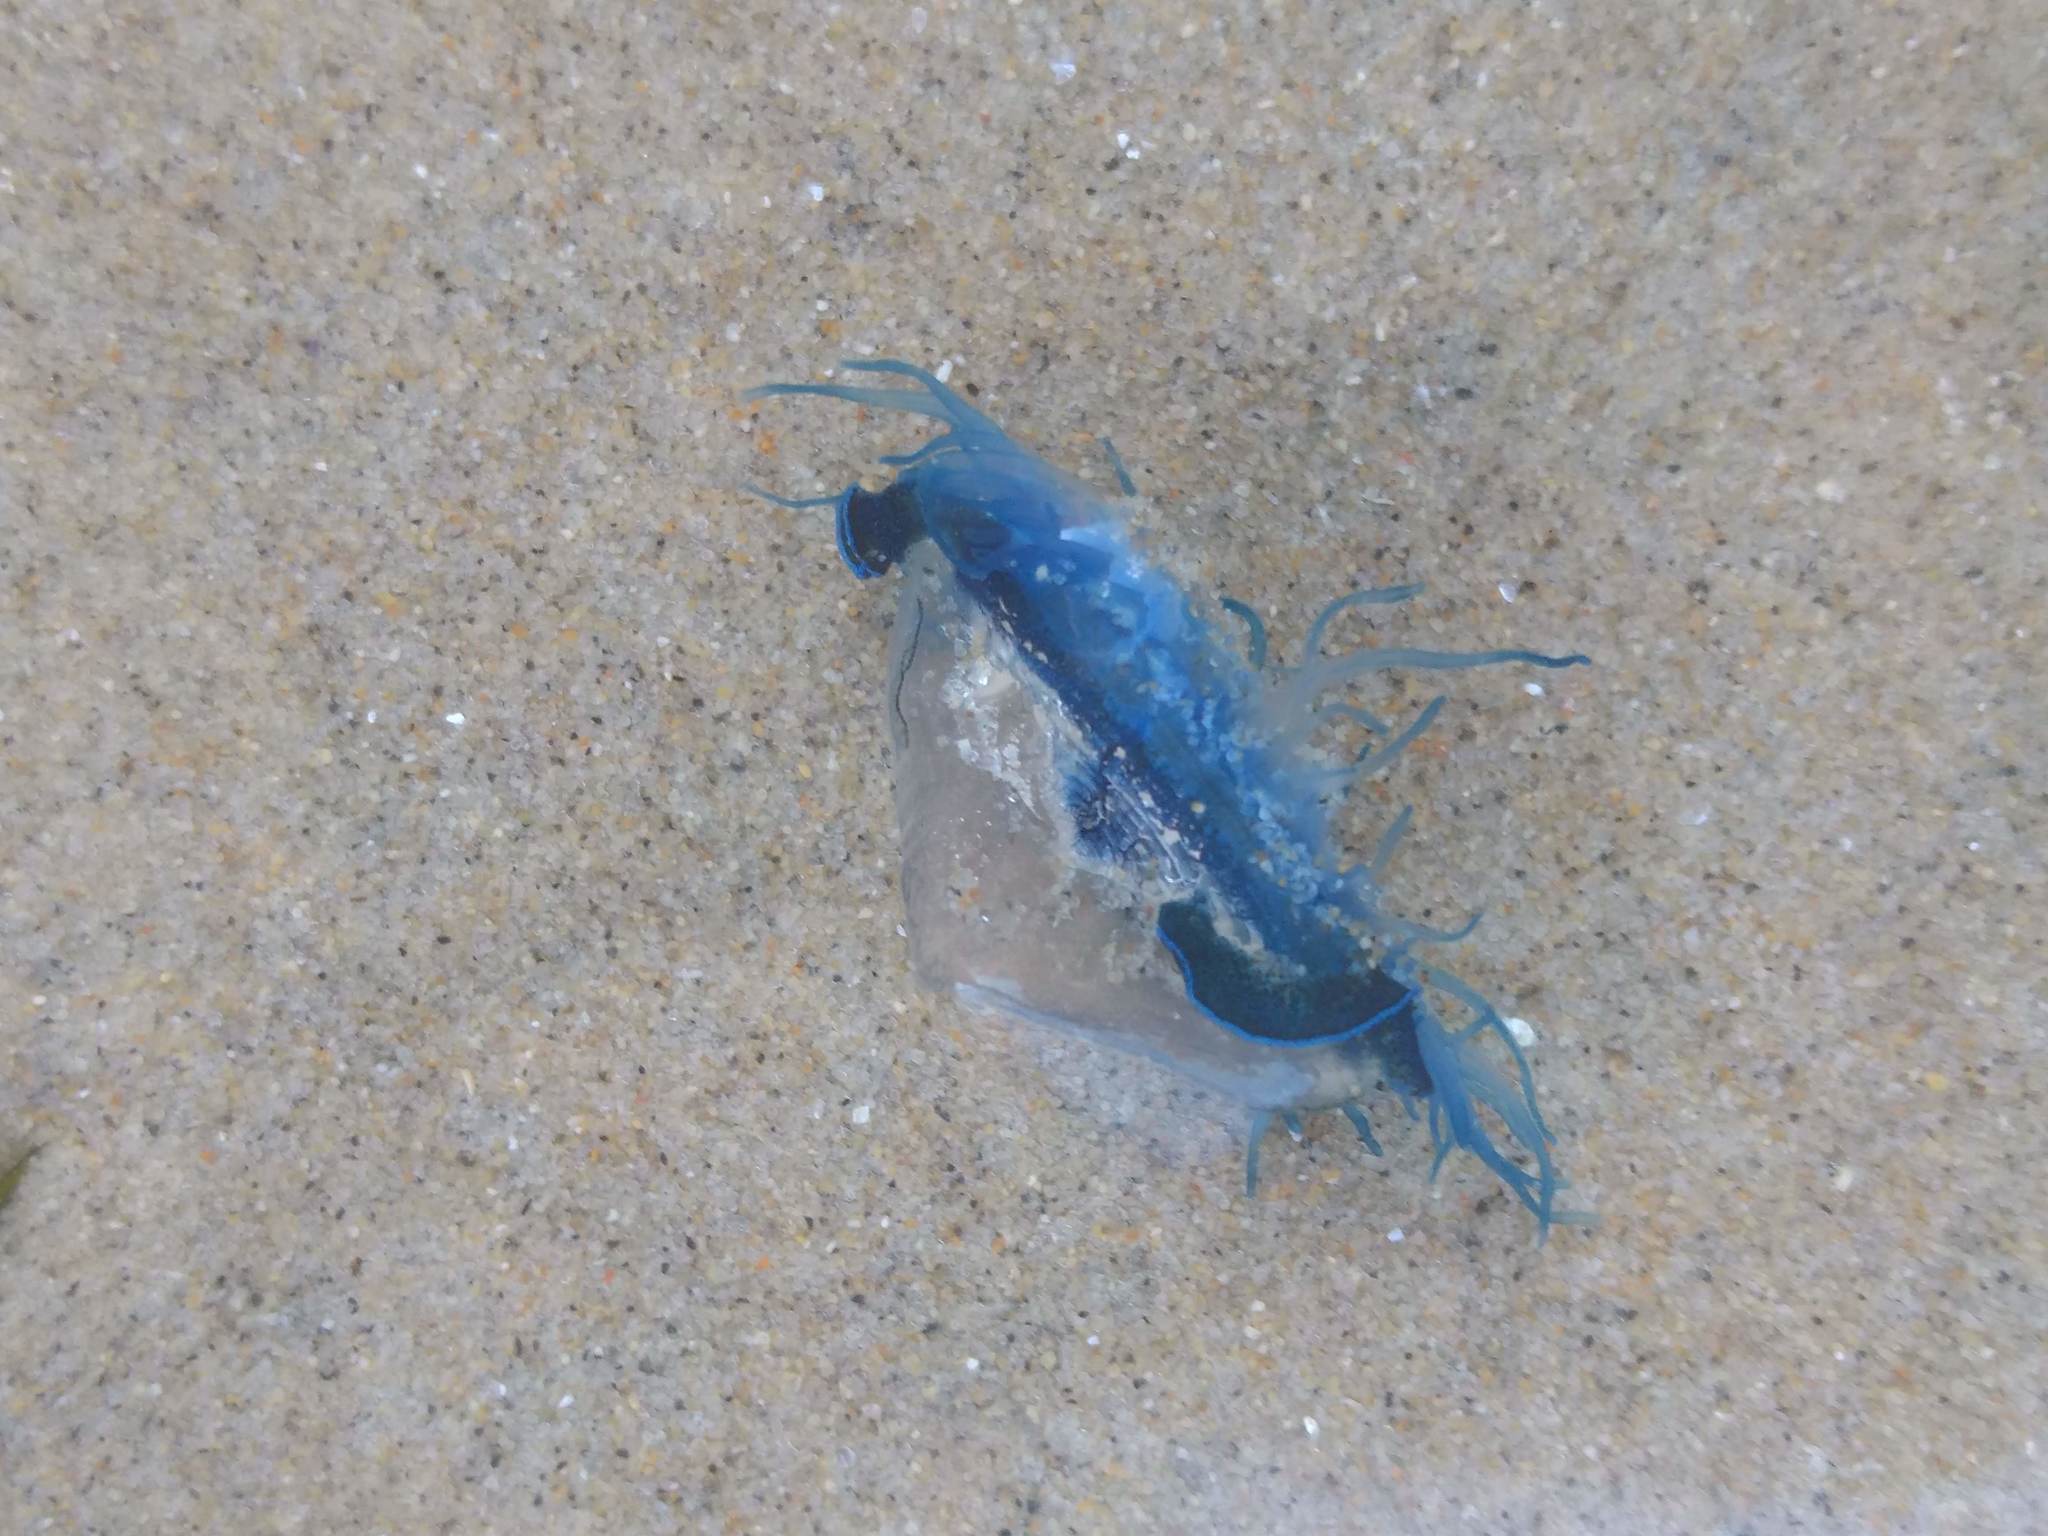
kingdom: Animalia
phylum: Cnidaria
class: Hydrozoa
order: Anthoathecata
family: Porpitidae
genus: Velella
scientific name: Velella velella
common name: By-the-wind-sailor
